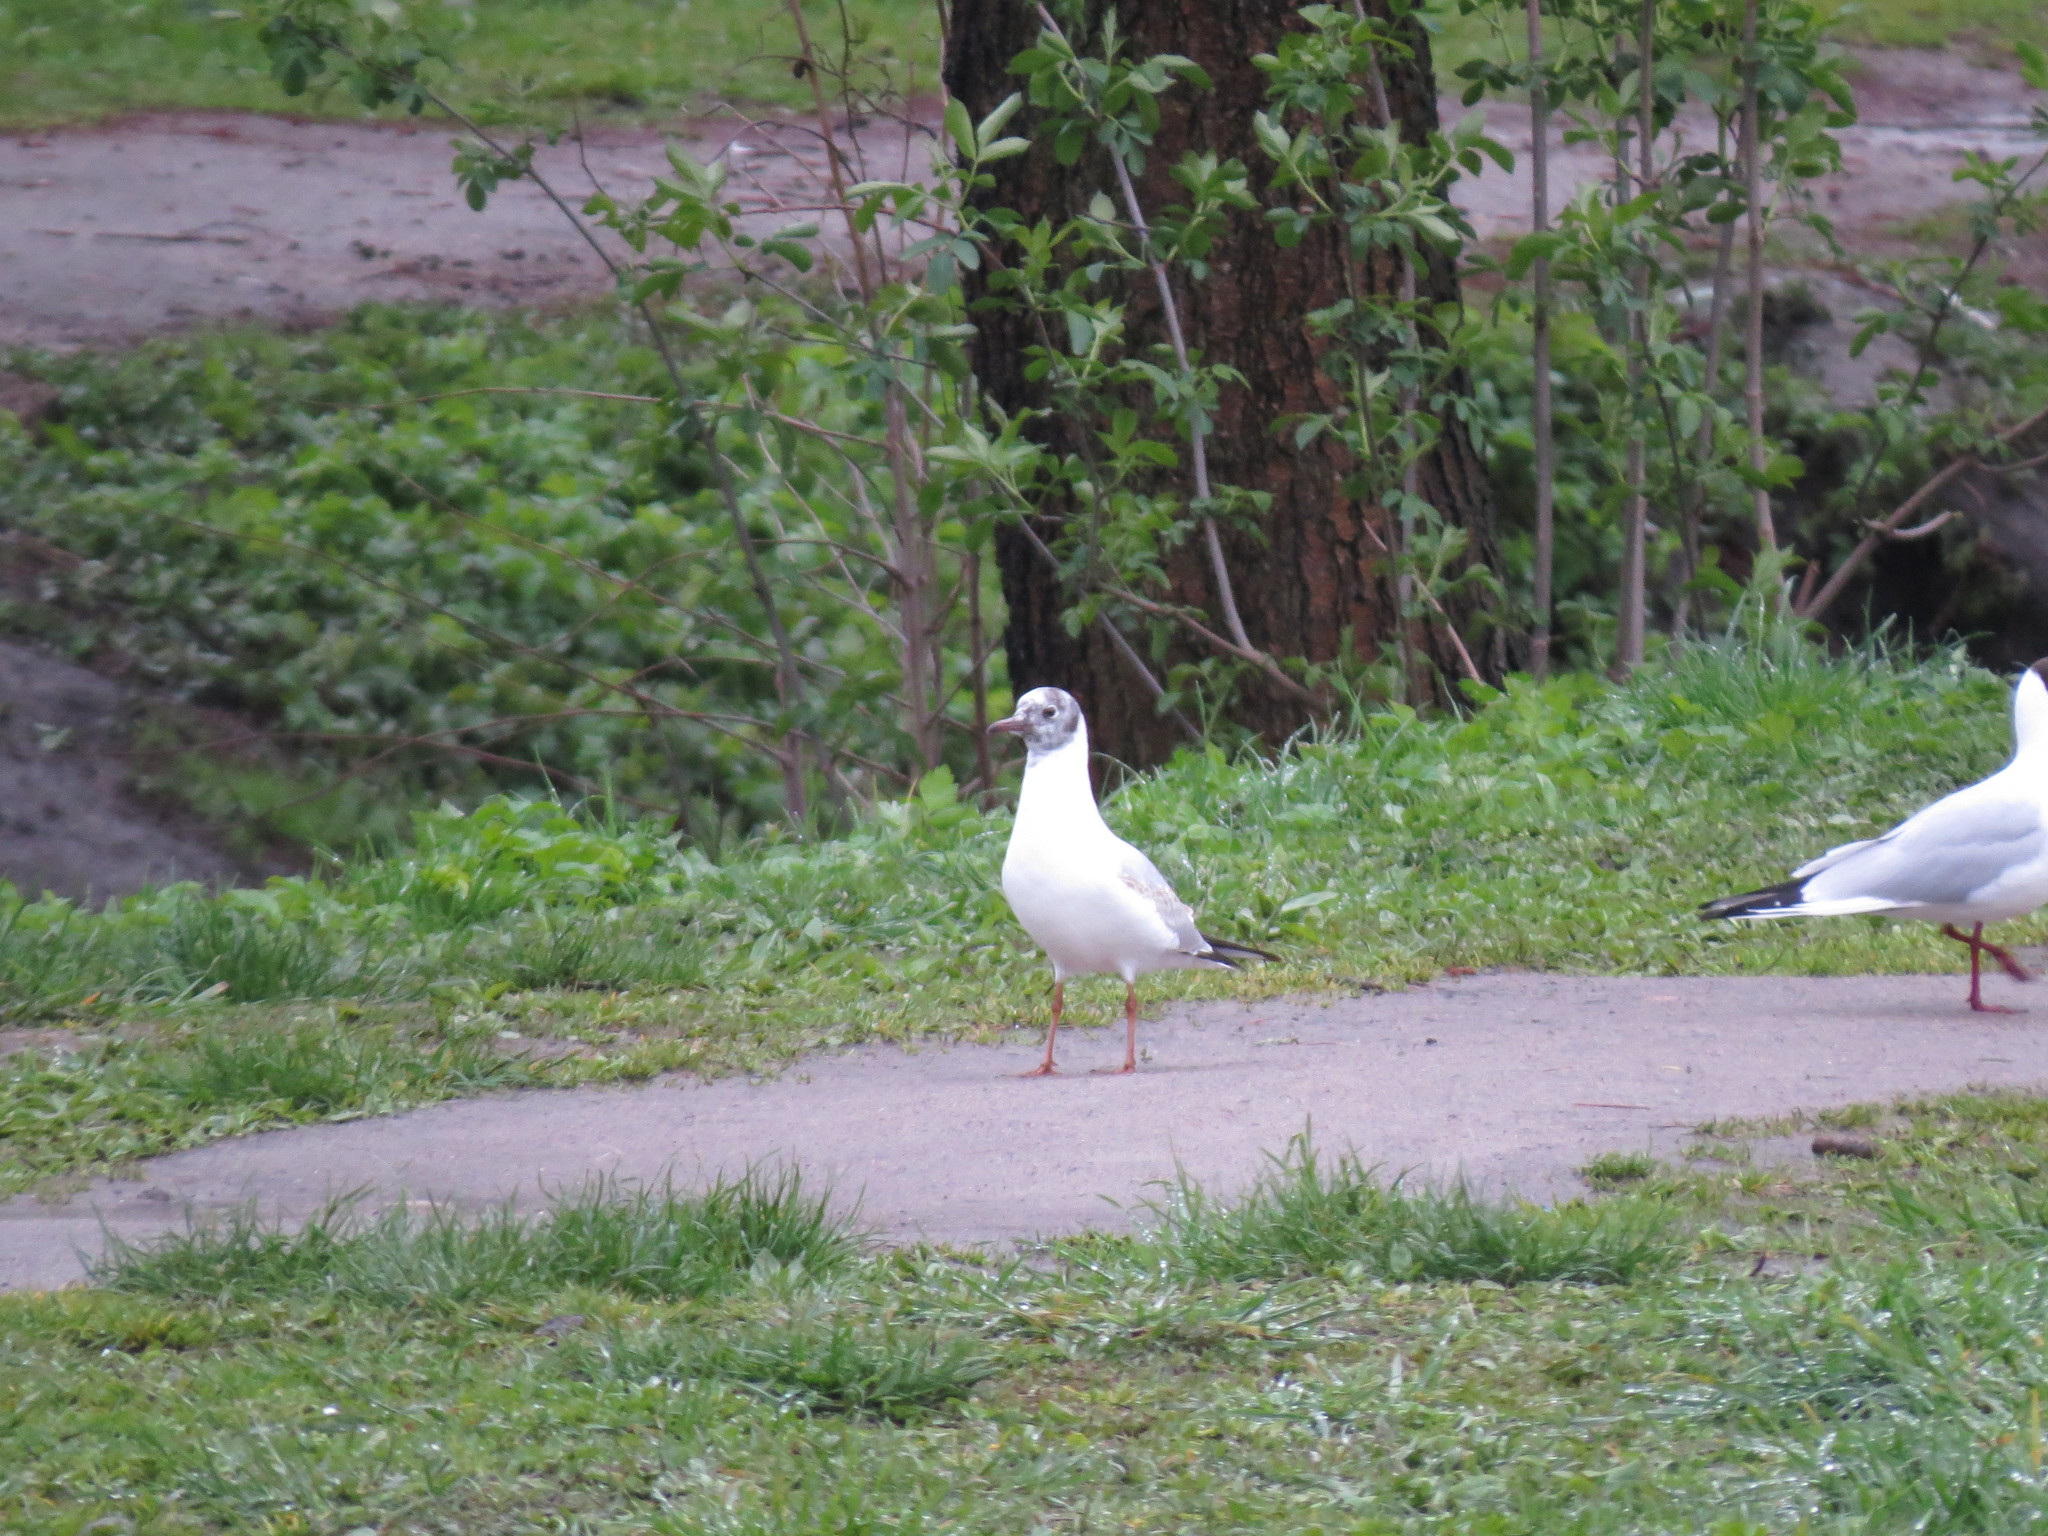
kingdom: Animalia
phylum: Chordata
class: Aves
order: Charadriiformes
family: Laridae
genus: Chroicocephalus
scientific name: Chroicocephalus ridibundus
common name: Black-headed gull
